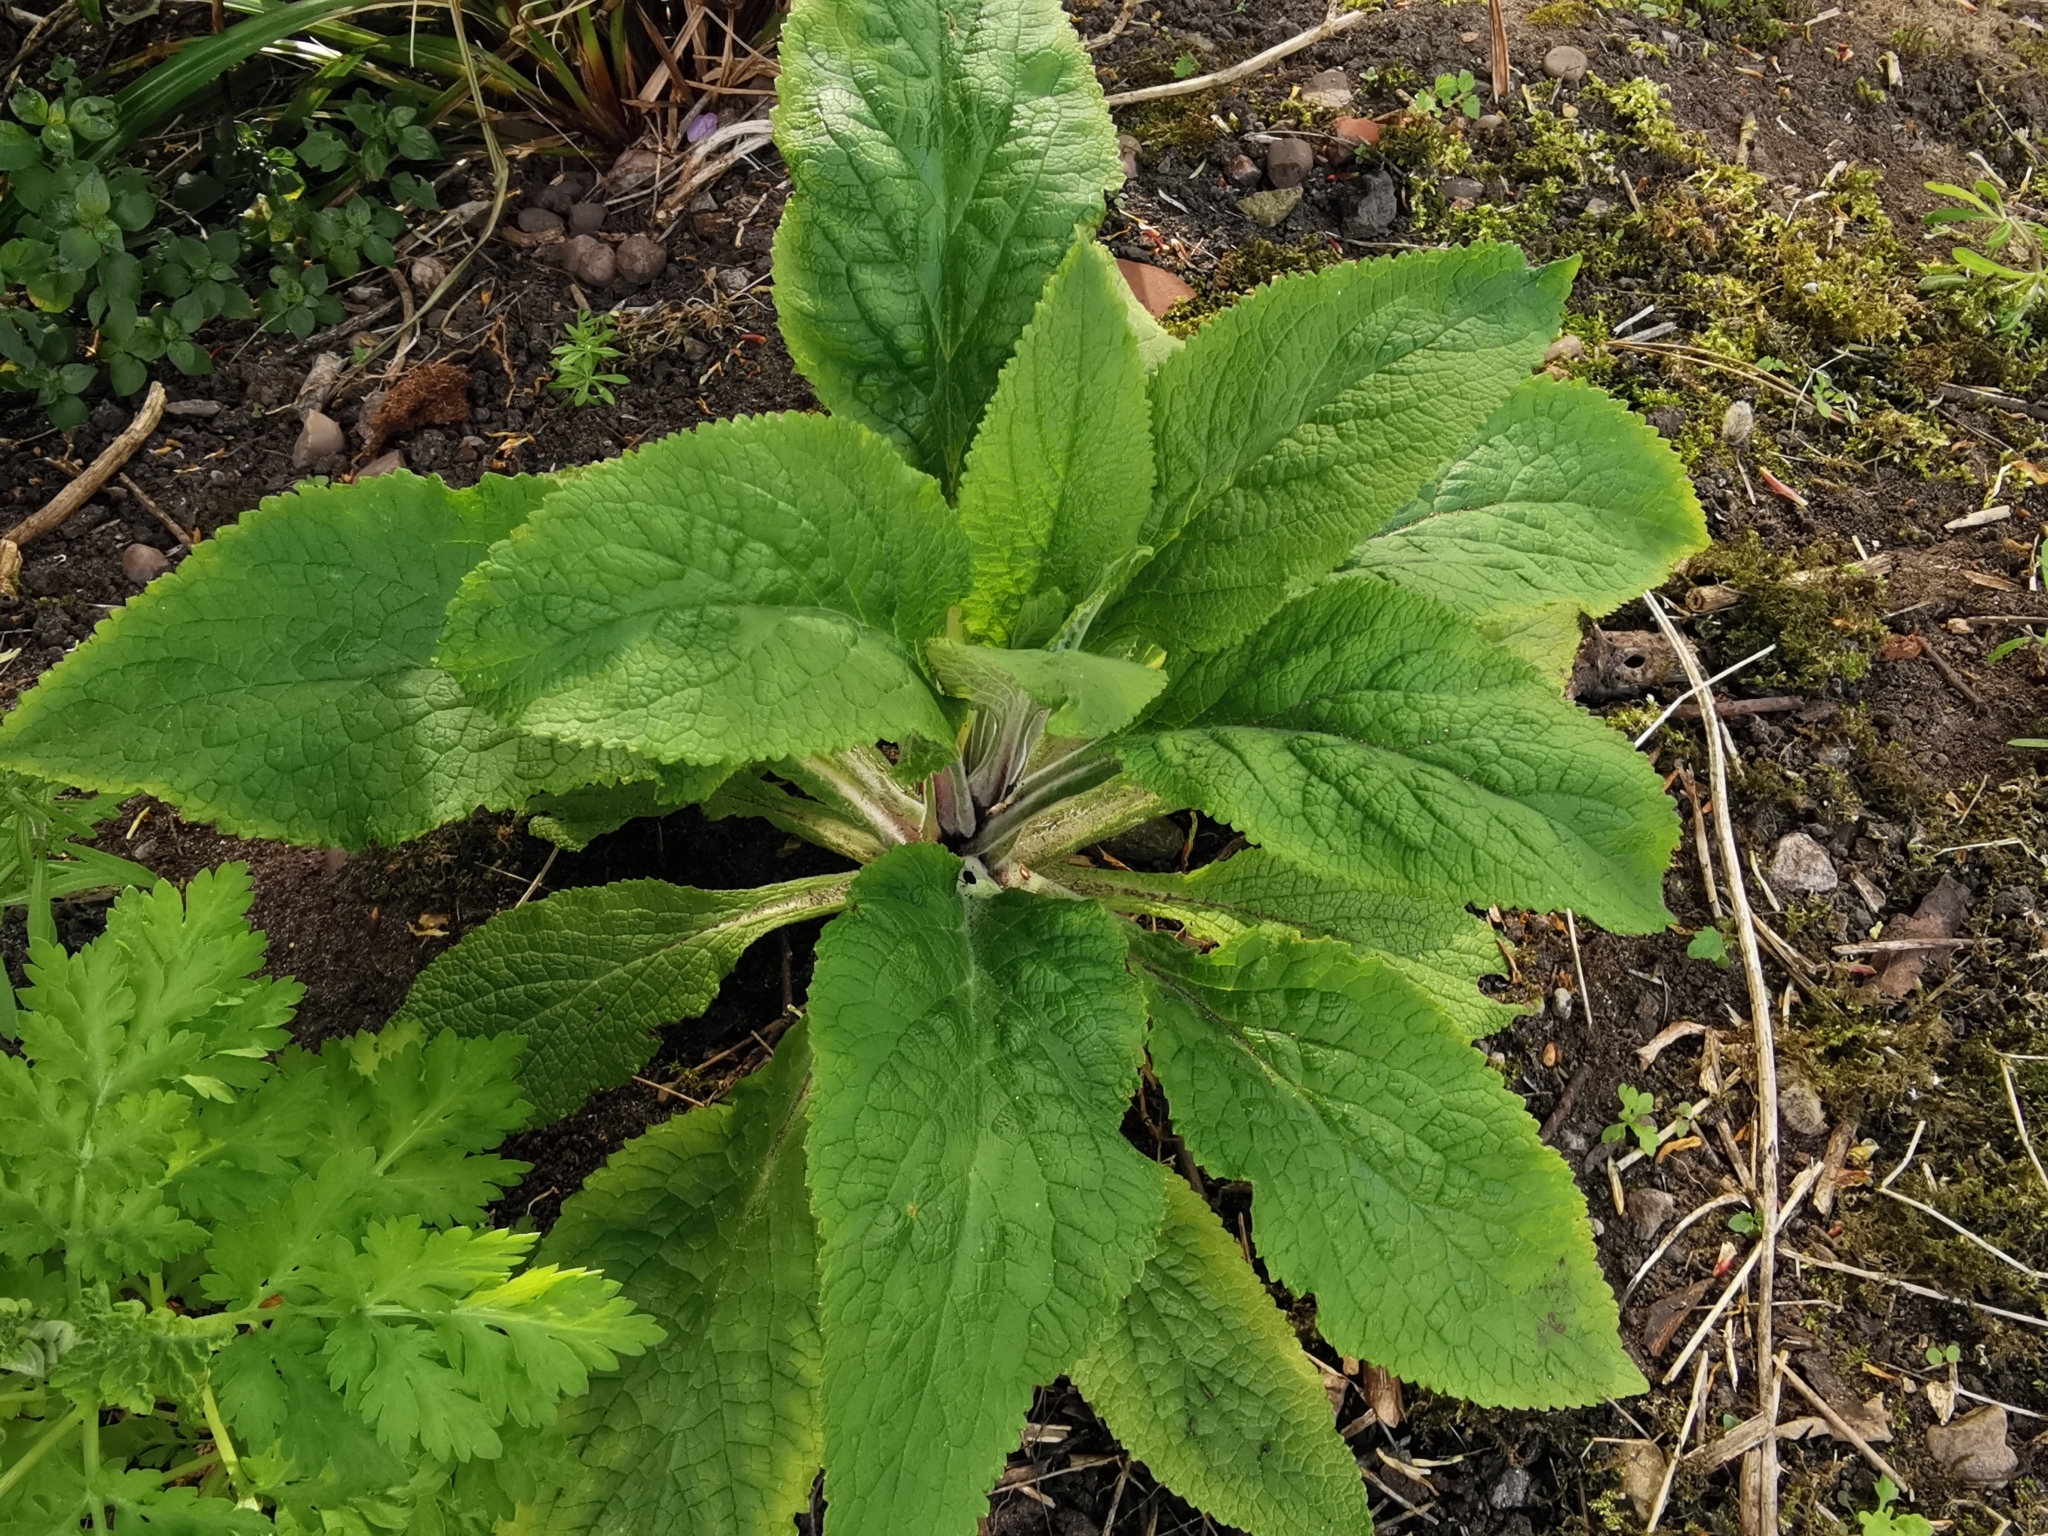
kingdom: Plantae
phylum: Tracheophyta
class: Magnoliopsida
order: Lamiales
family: Plantaginaceae
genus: Digitalis
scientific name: Digitalis purpurea
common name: Foxglove
